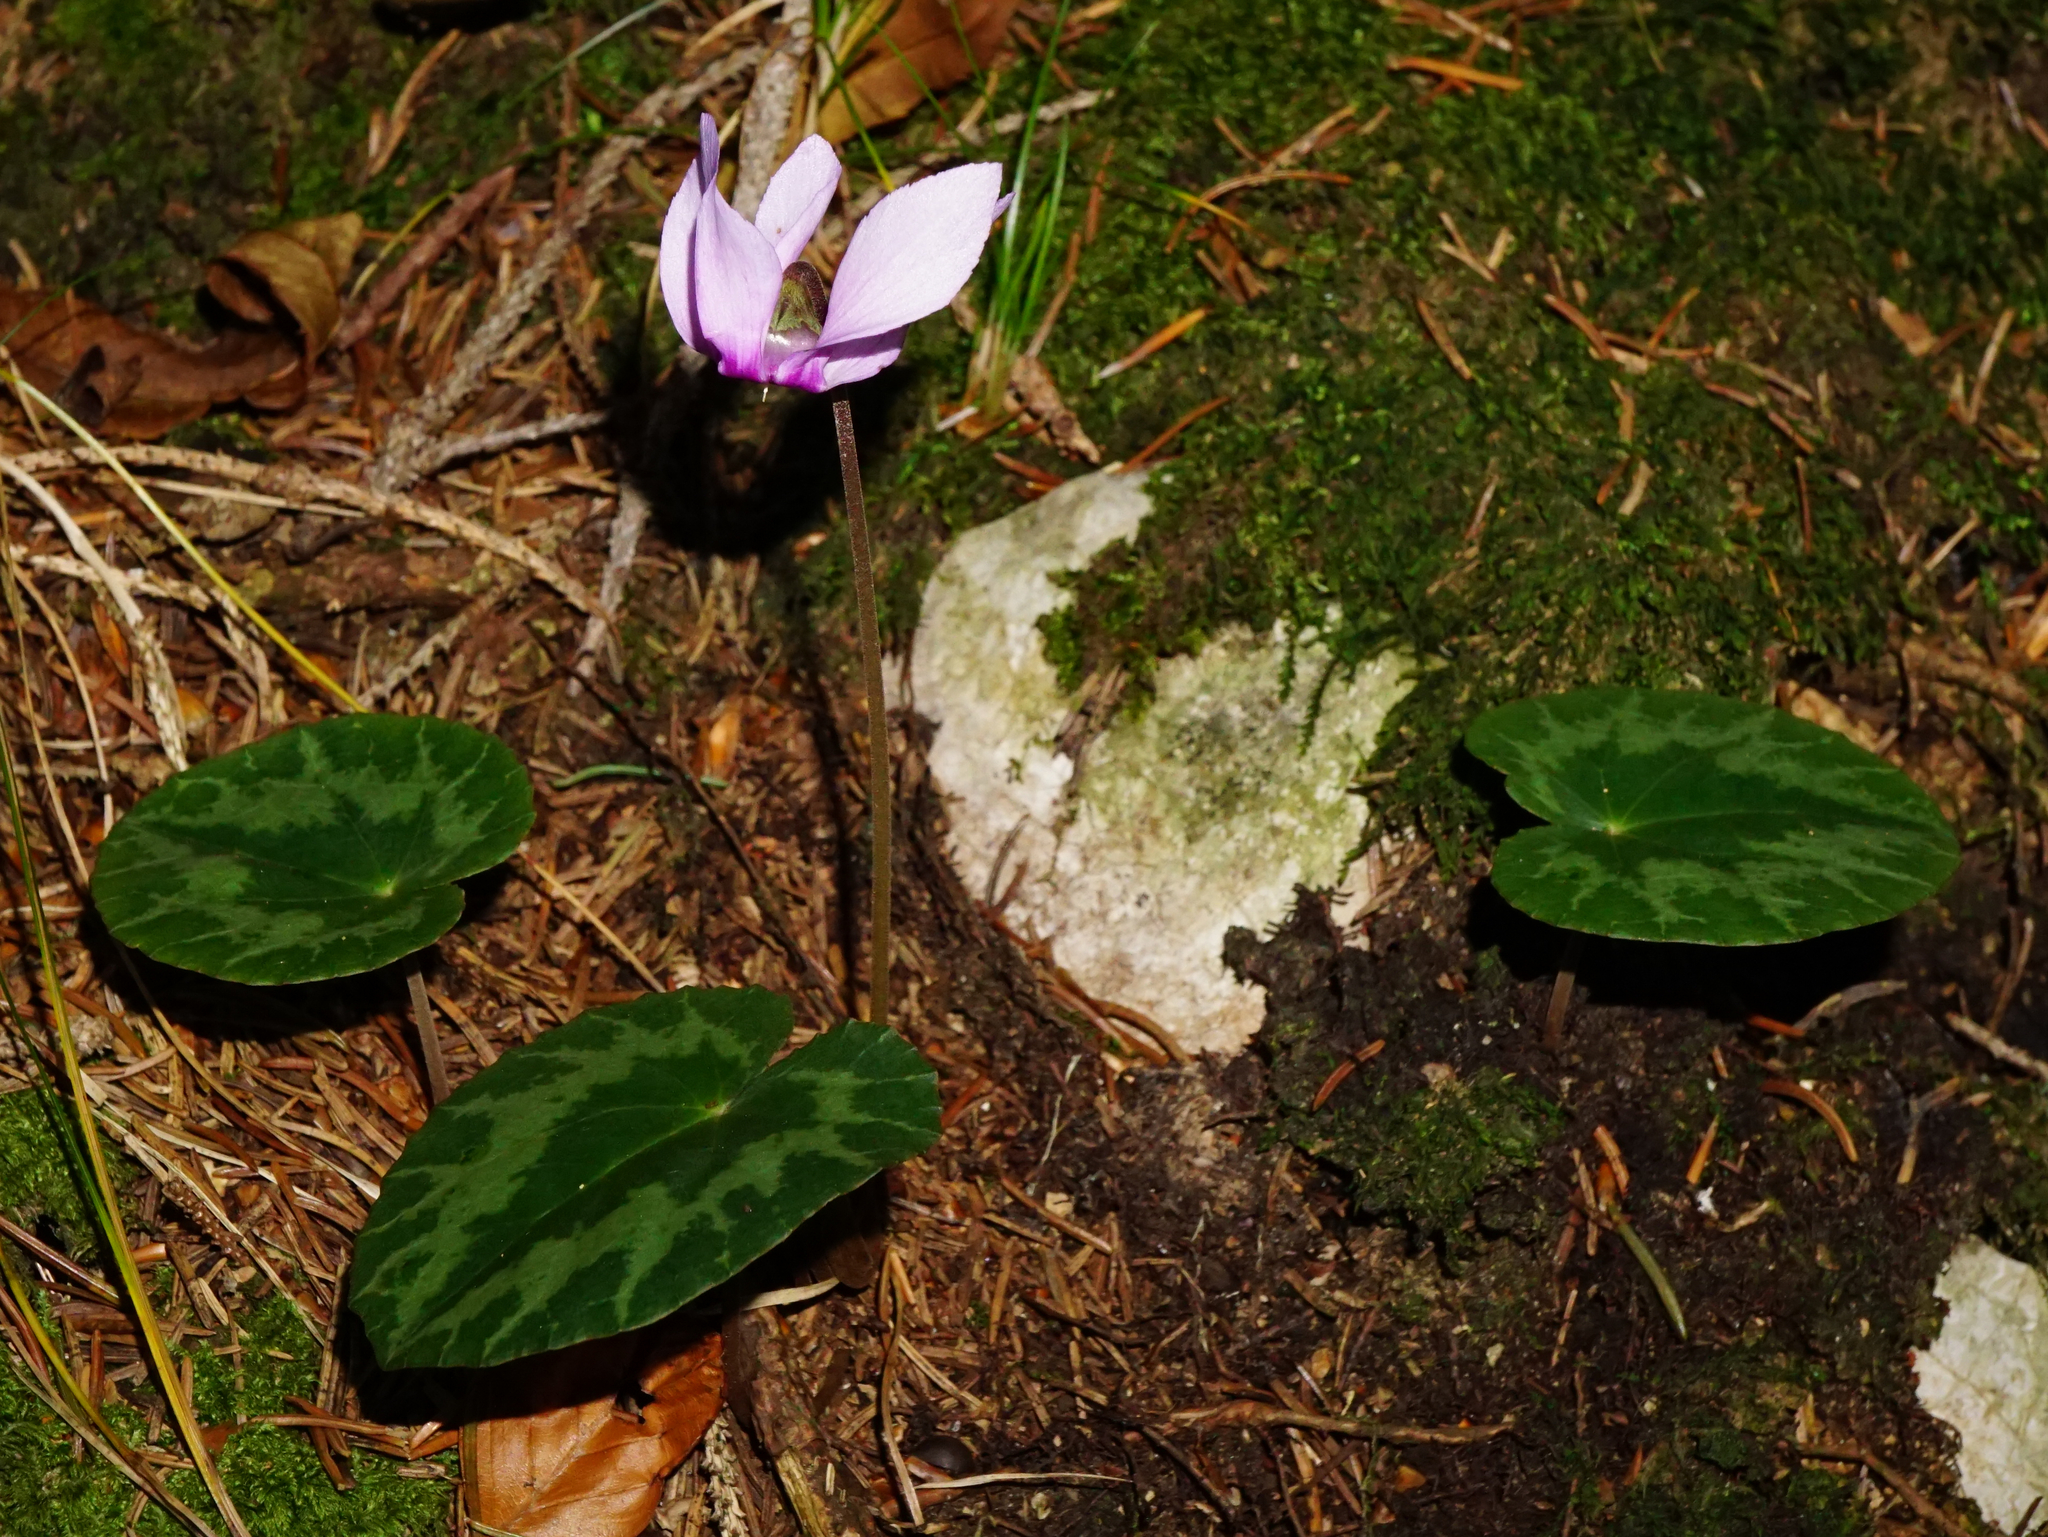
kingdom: Plantae
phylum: Tracheophyta
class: Magnoliopsida
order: Ericales
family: Primulaceae
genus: Cyclamen
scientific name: Cyclamen purpurascens
